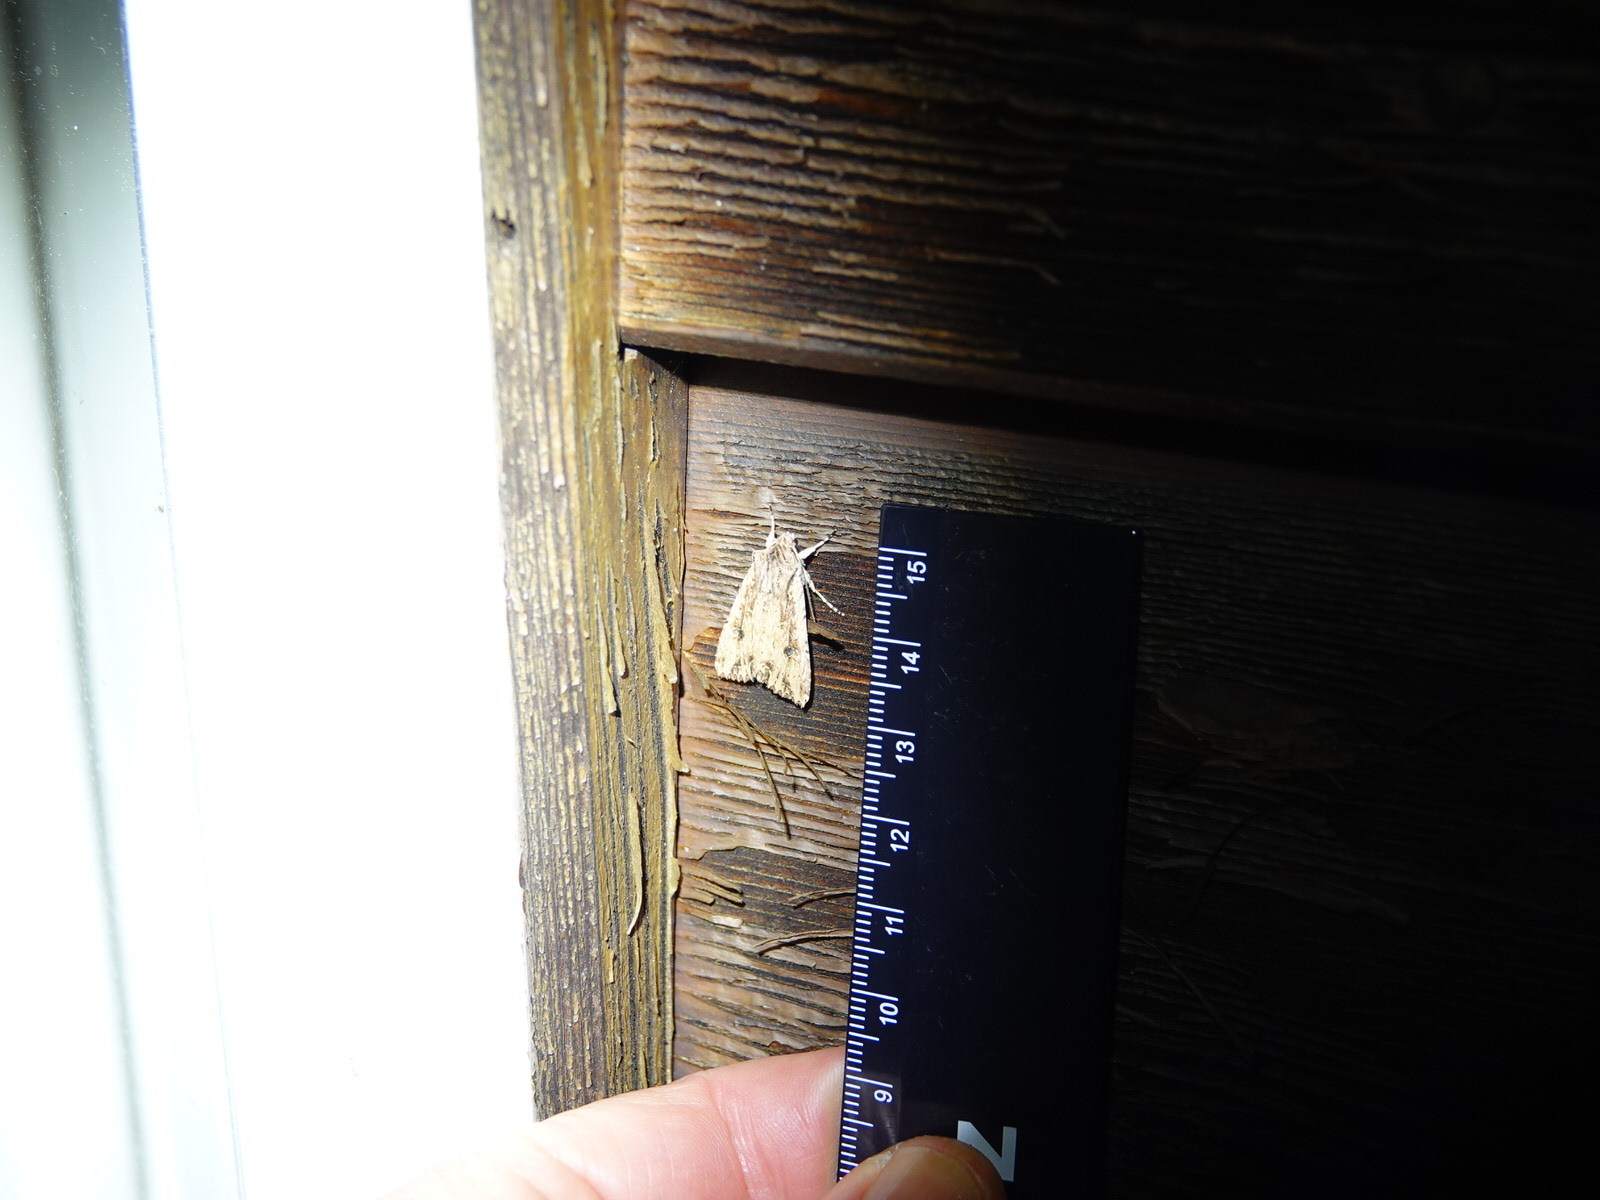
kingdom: Animalia
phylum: Arthropoda
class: Insecta
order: Lepidoptera
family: Noctuidae
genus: Ichneutica
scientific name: Ichneutica lignana
